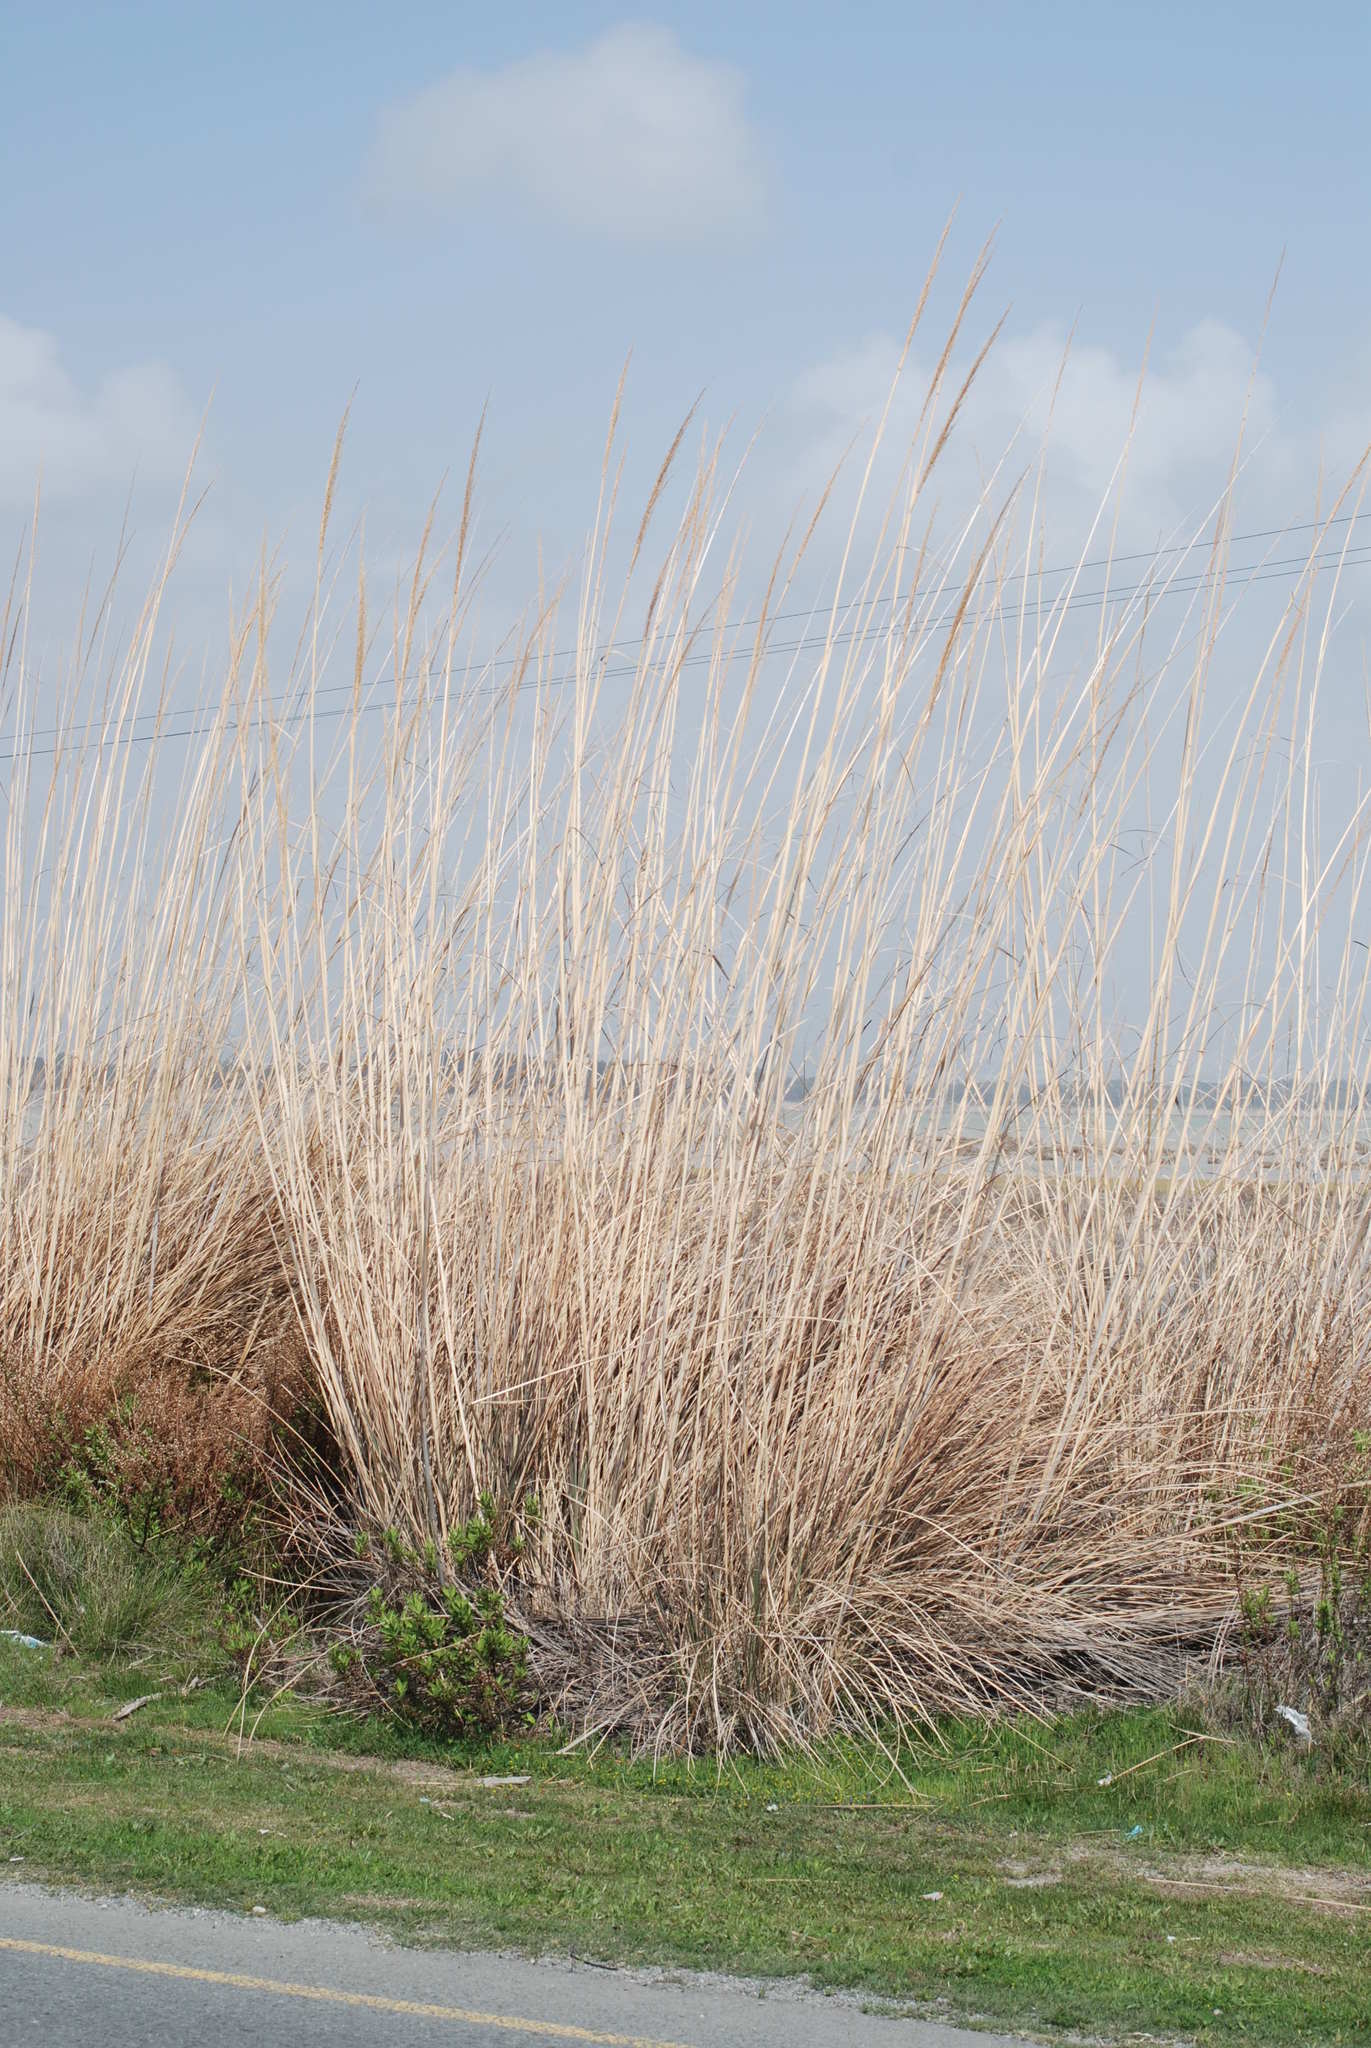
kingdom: Plantae
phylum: Tracheophyta
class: Liliopsida
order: Poales
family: Poaceae
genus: Tripidium
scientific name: Tripidium ravennae
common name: Ravenna grass
